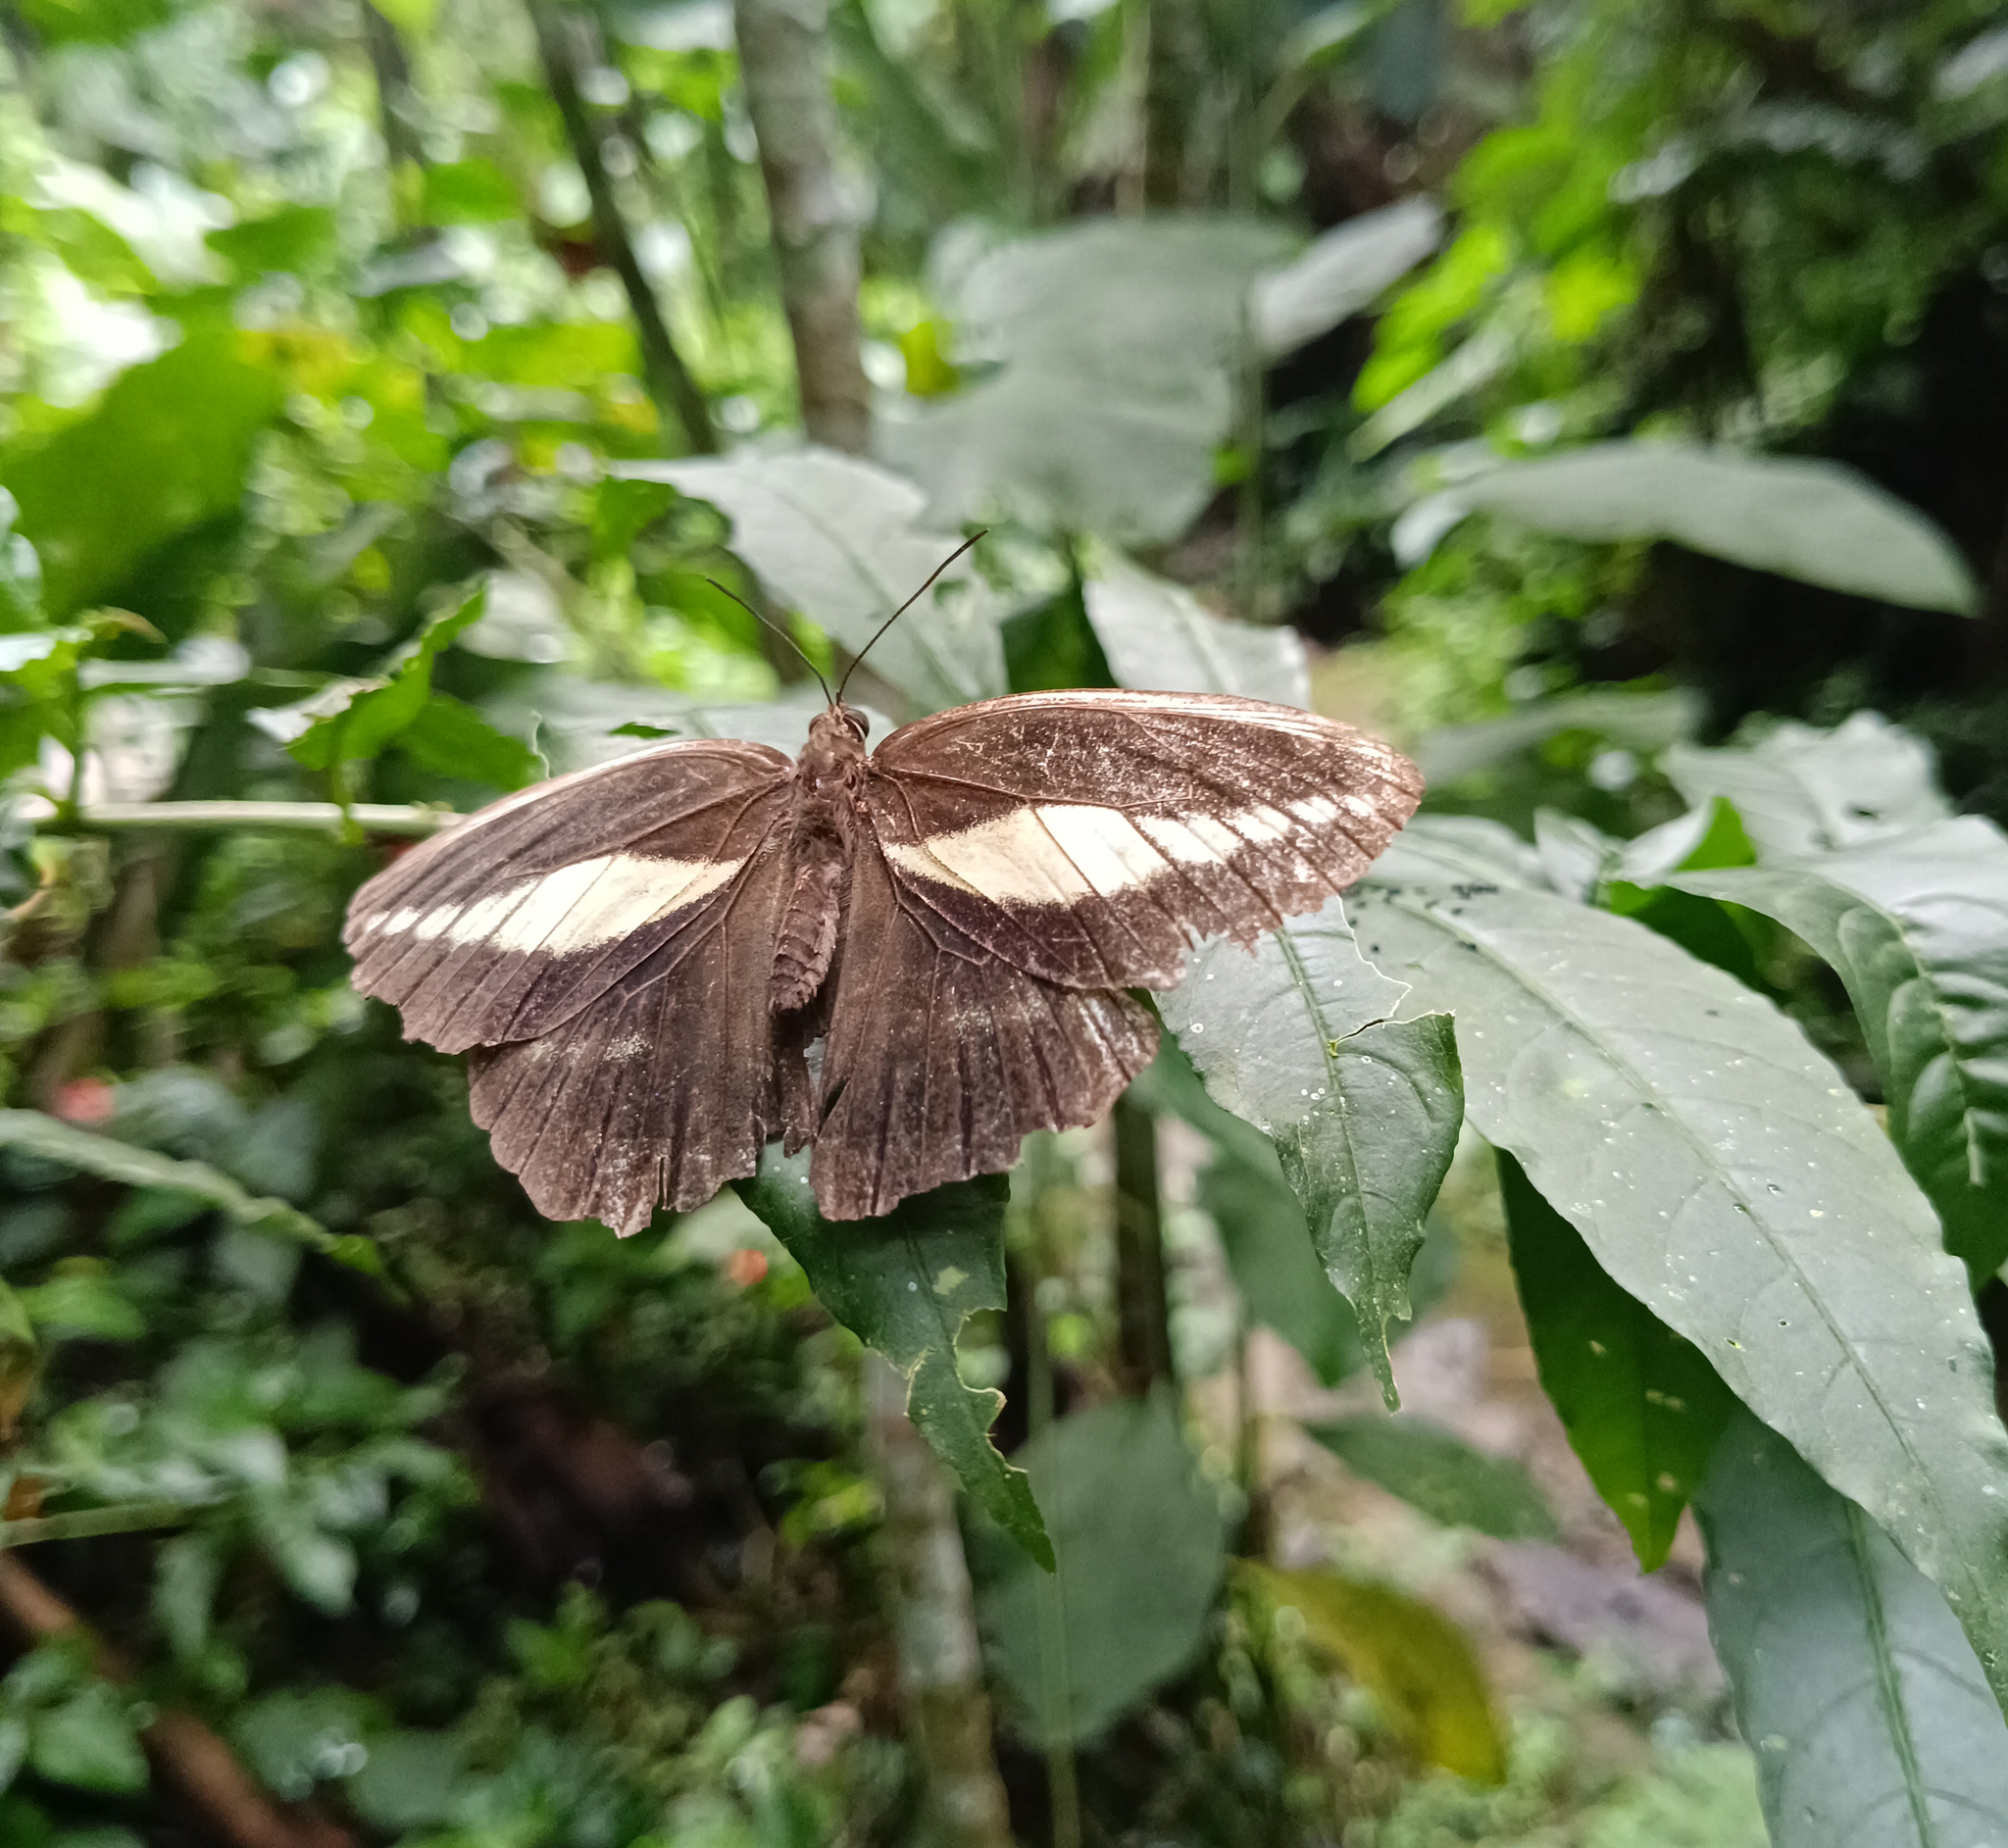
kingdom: Animalia
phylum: Arthropoda
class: Insecta
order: Lepidoptera
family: Nymphalidae
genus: Dasyophthalma
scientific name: Dasyophthalma creusa
